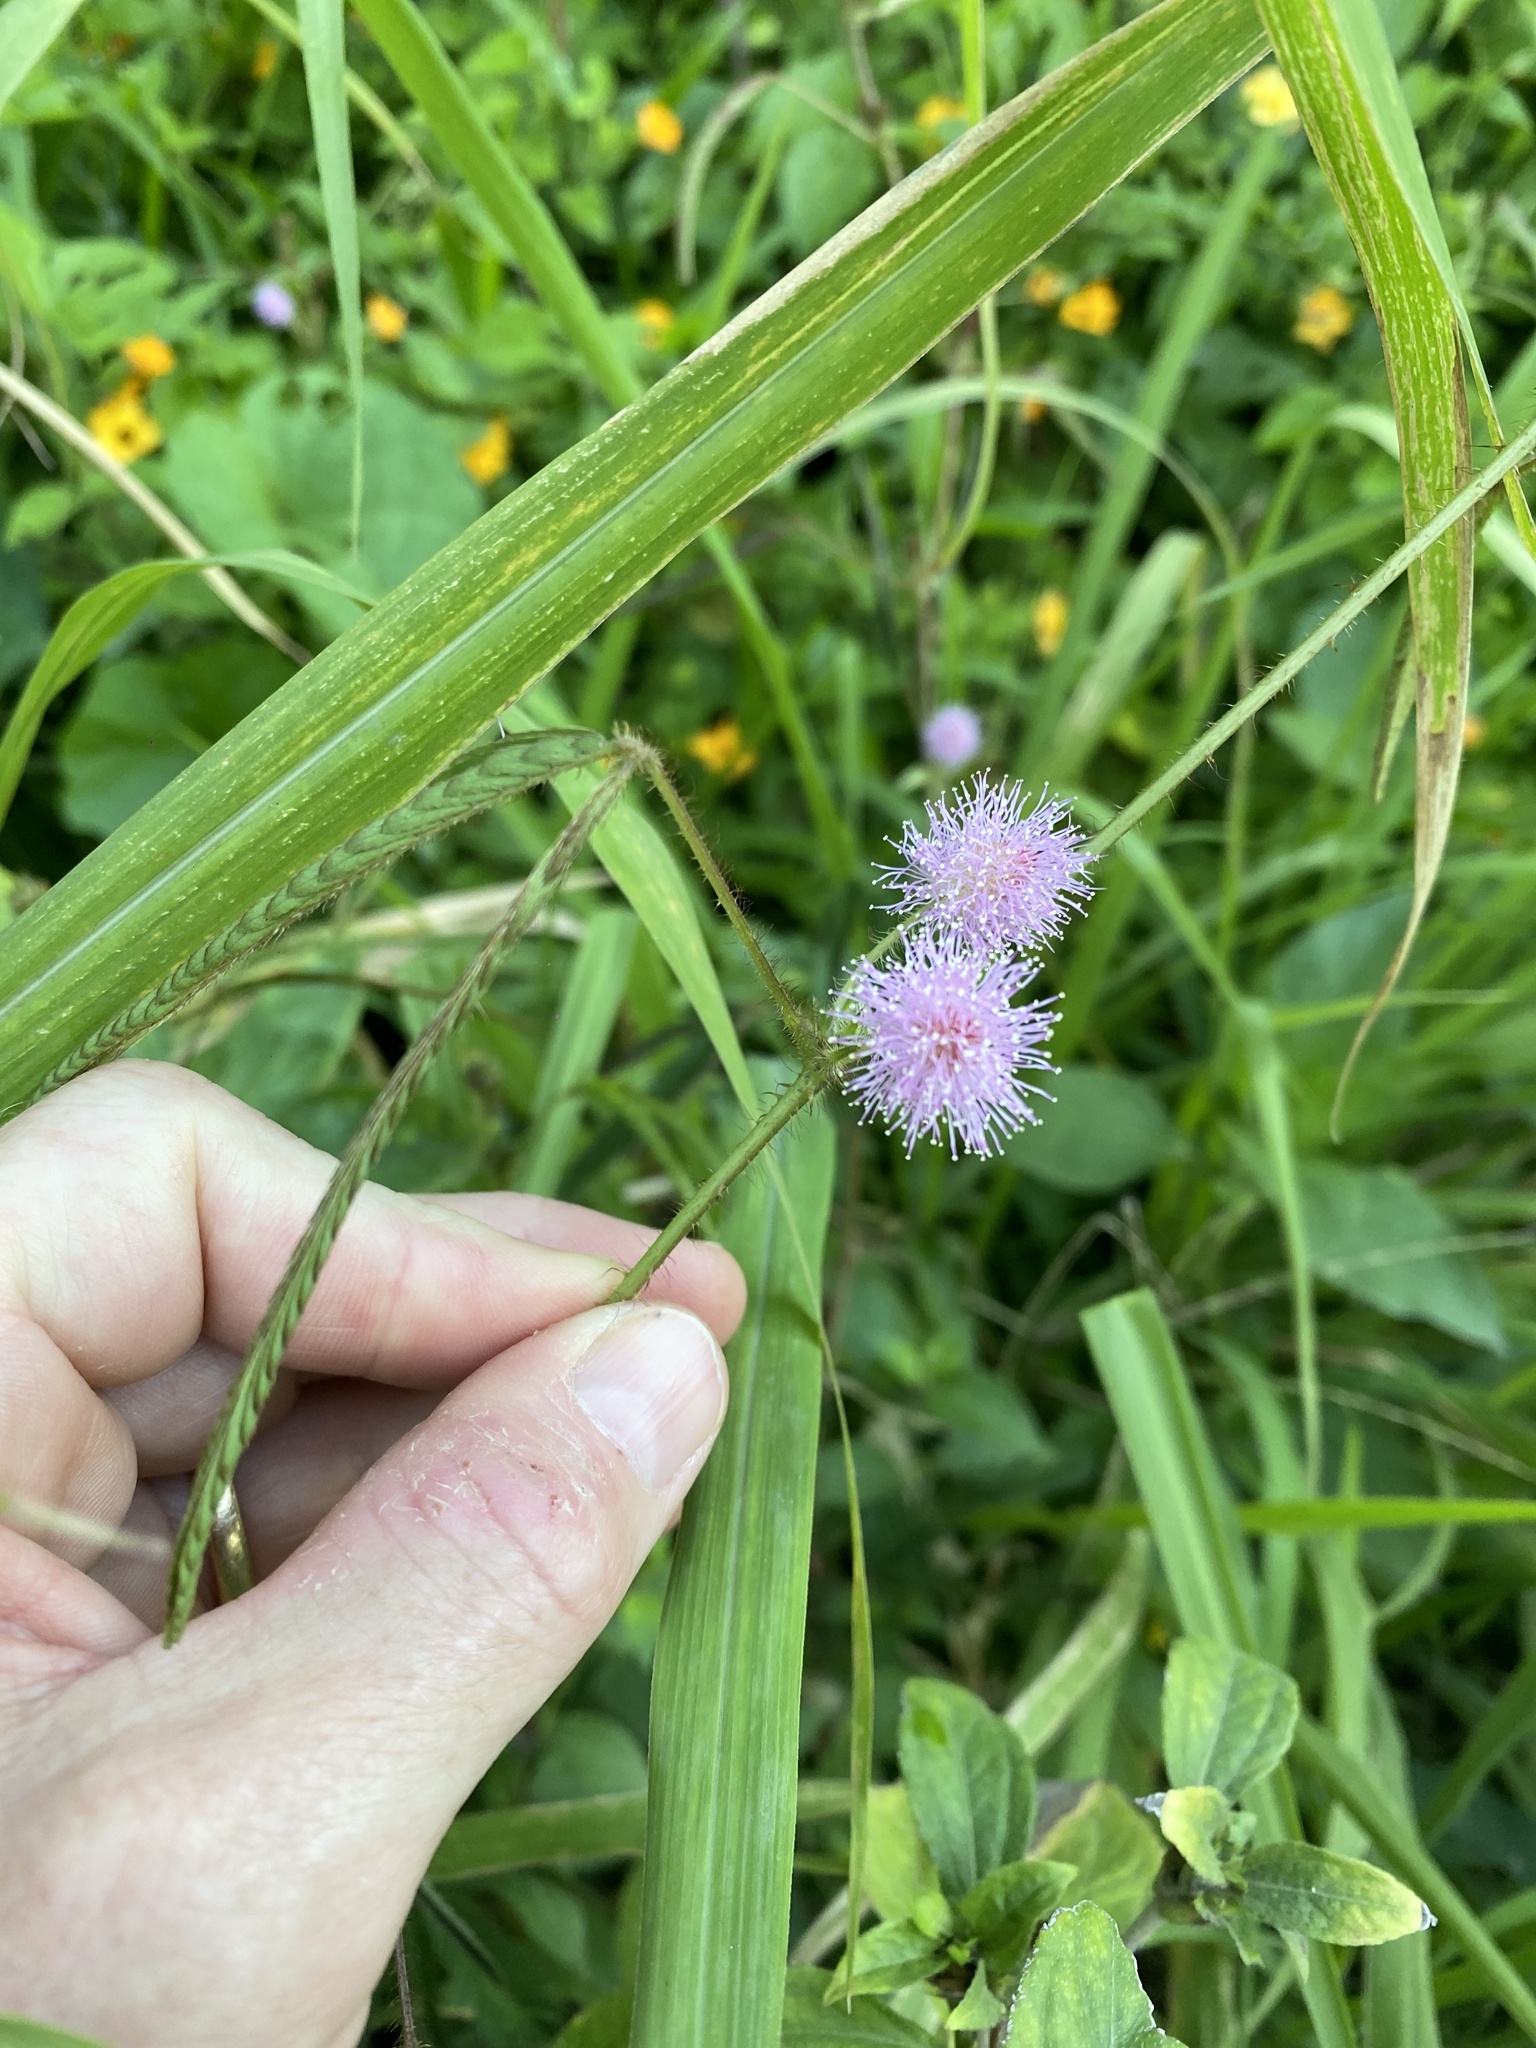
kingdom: Plantae
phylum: Tracheophyta
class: Magnoliopsida
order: Fabales
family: Fabaceae
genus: Mimosa
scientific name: Mimosa pudica
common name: Sensitive plant
